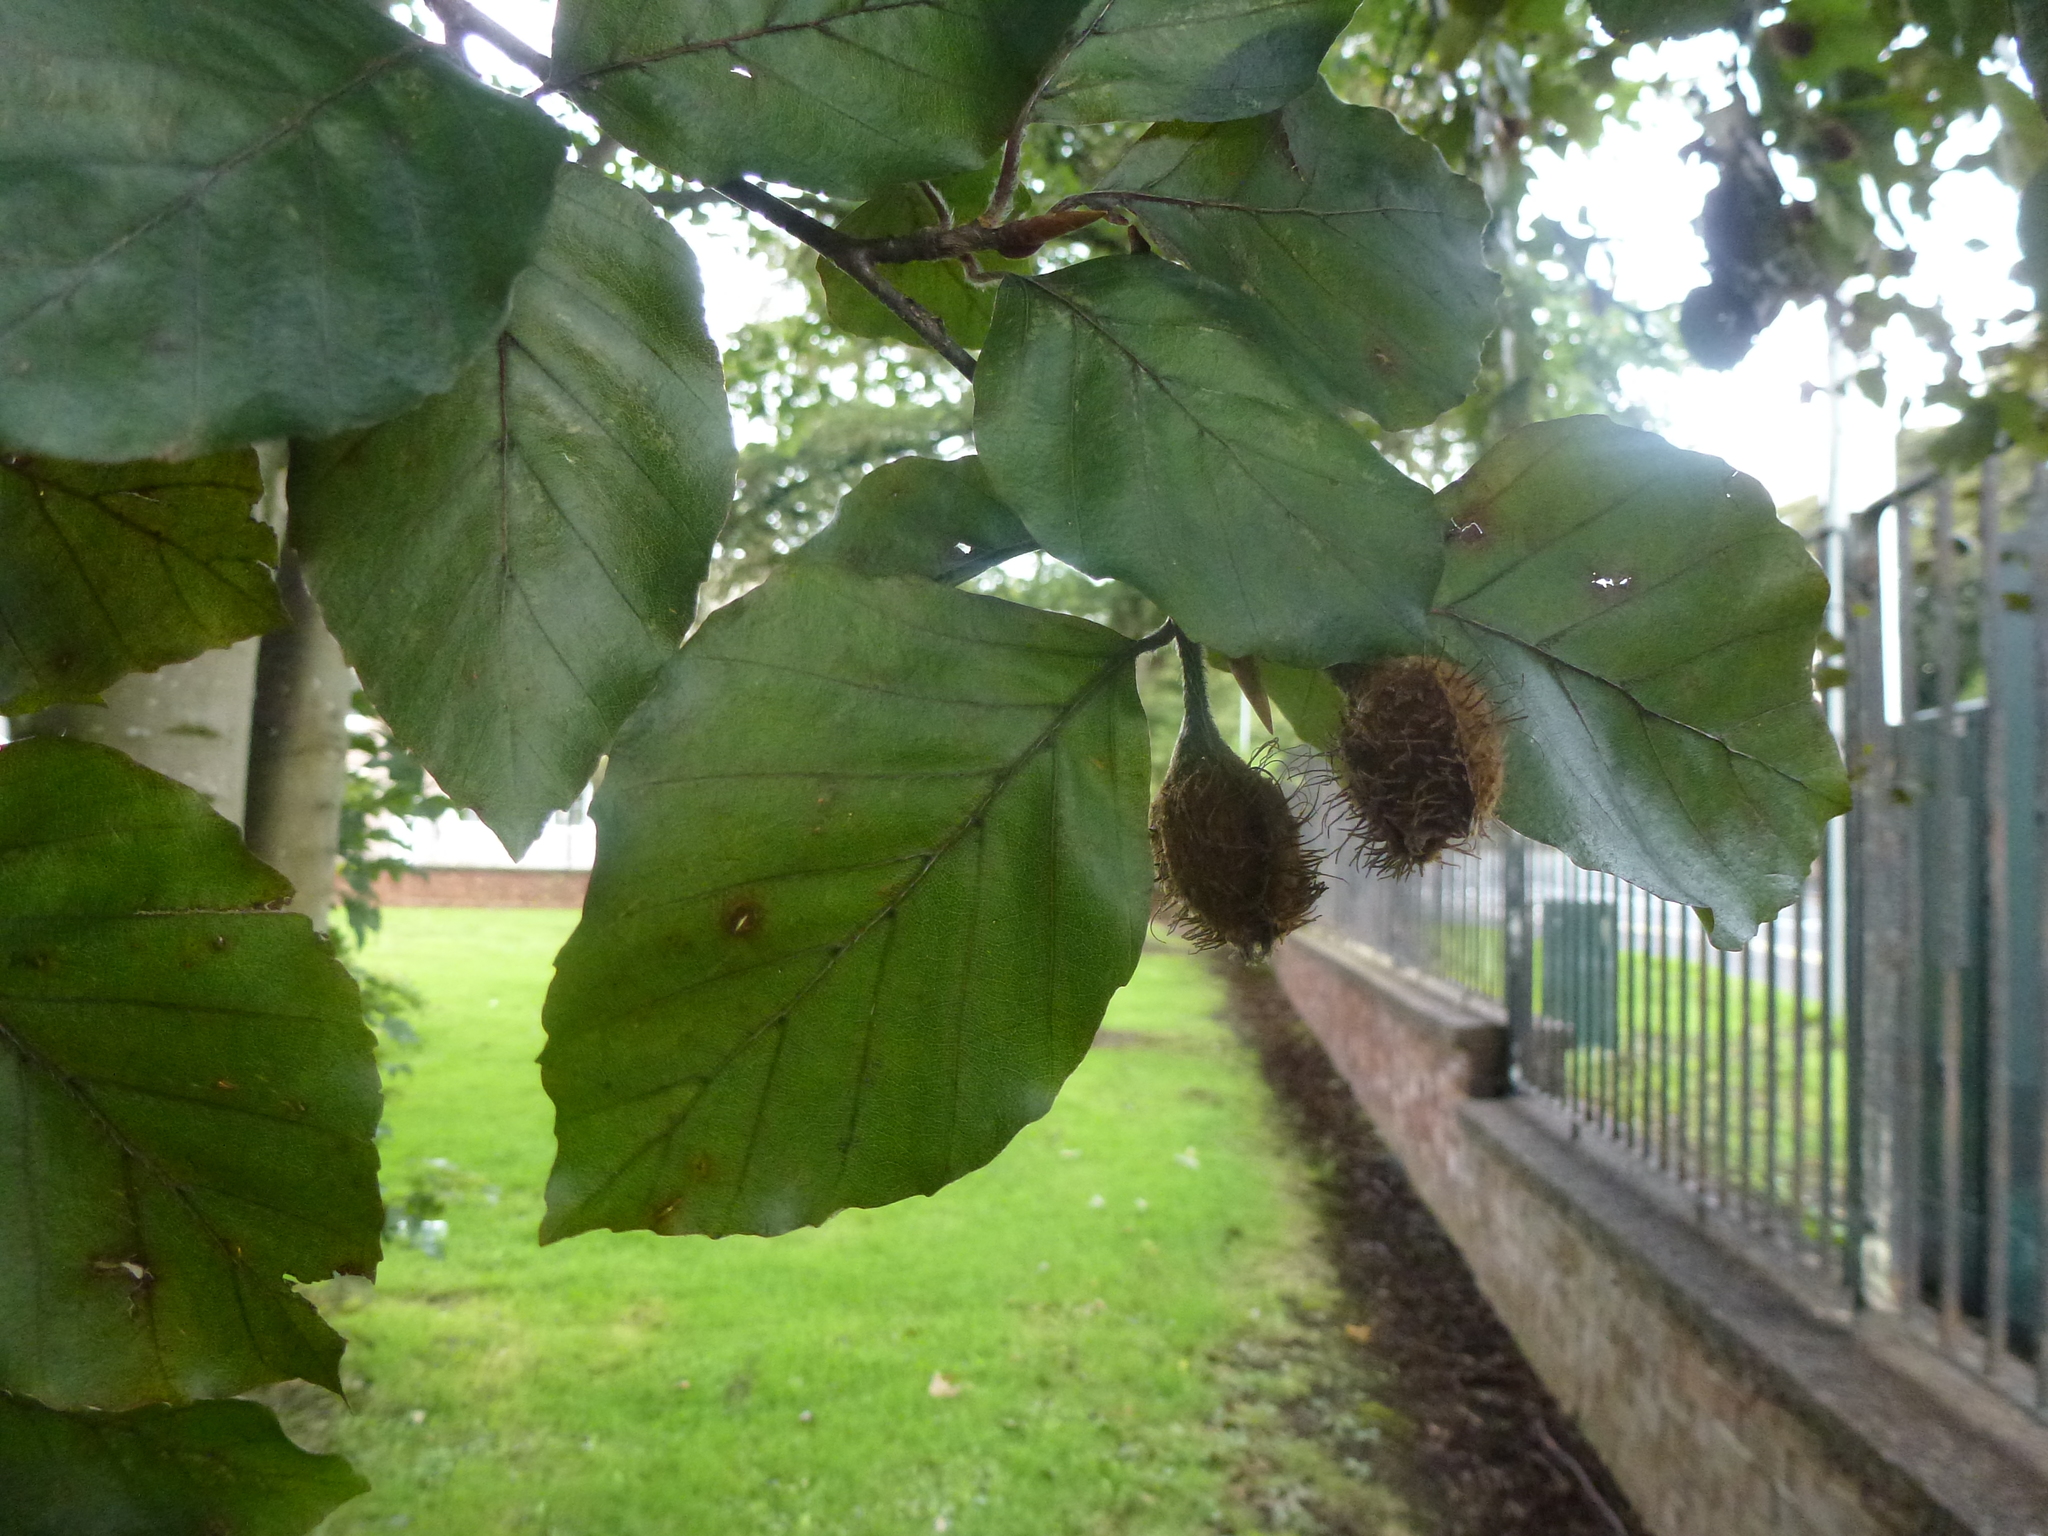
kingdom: Plantae
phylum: Tracheophyta
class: Magnoliopsida
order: Fagales
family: Fagaceae
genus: Fagus
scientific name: Fagus sylvatica
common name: Beech
